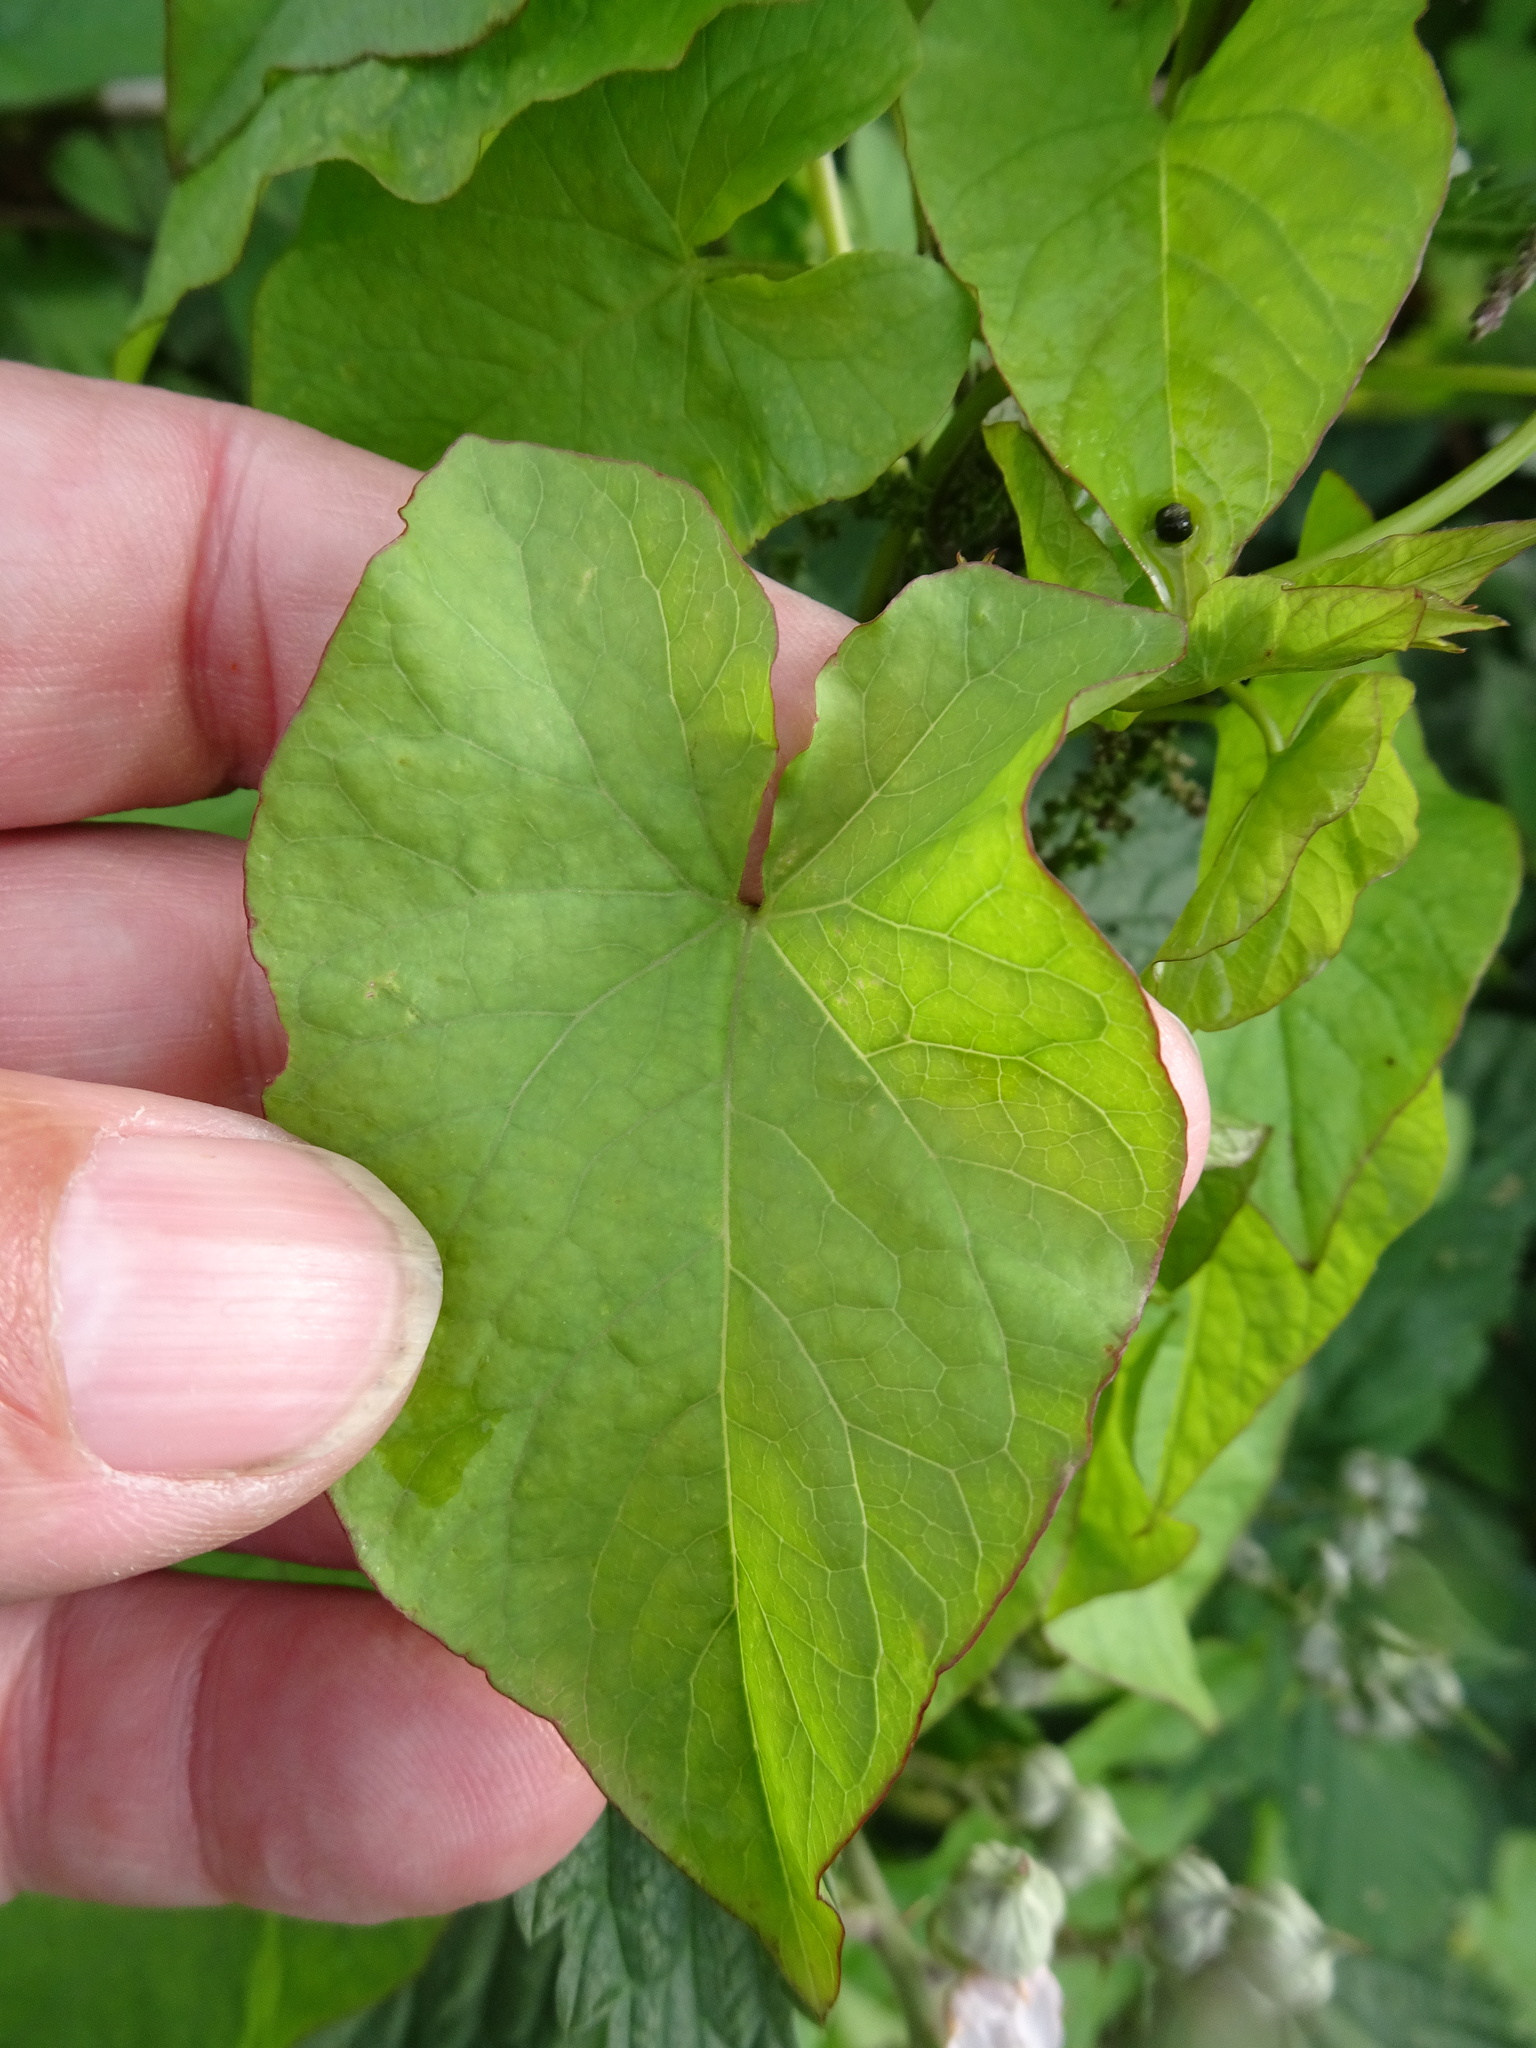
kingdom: Plantae
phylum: Tracheophyta
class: Magnoliopsida
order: Solanales
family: Convolvulaceae
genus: Calystegia
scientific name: Calystegia sepium
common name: Hedge bindweed
